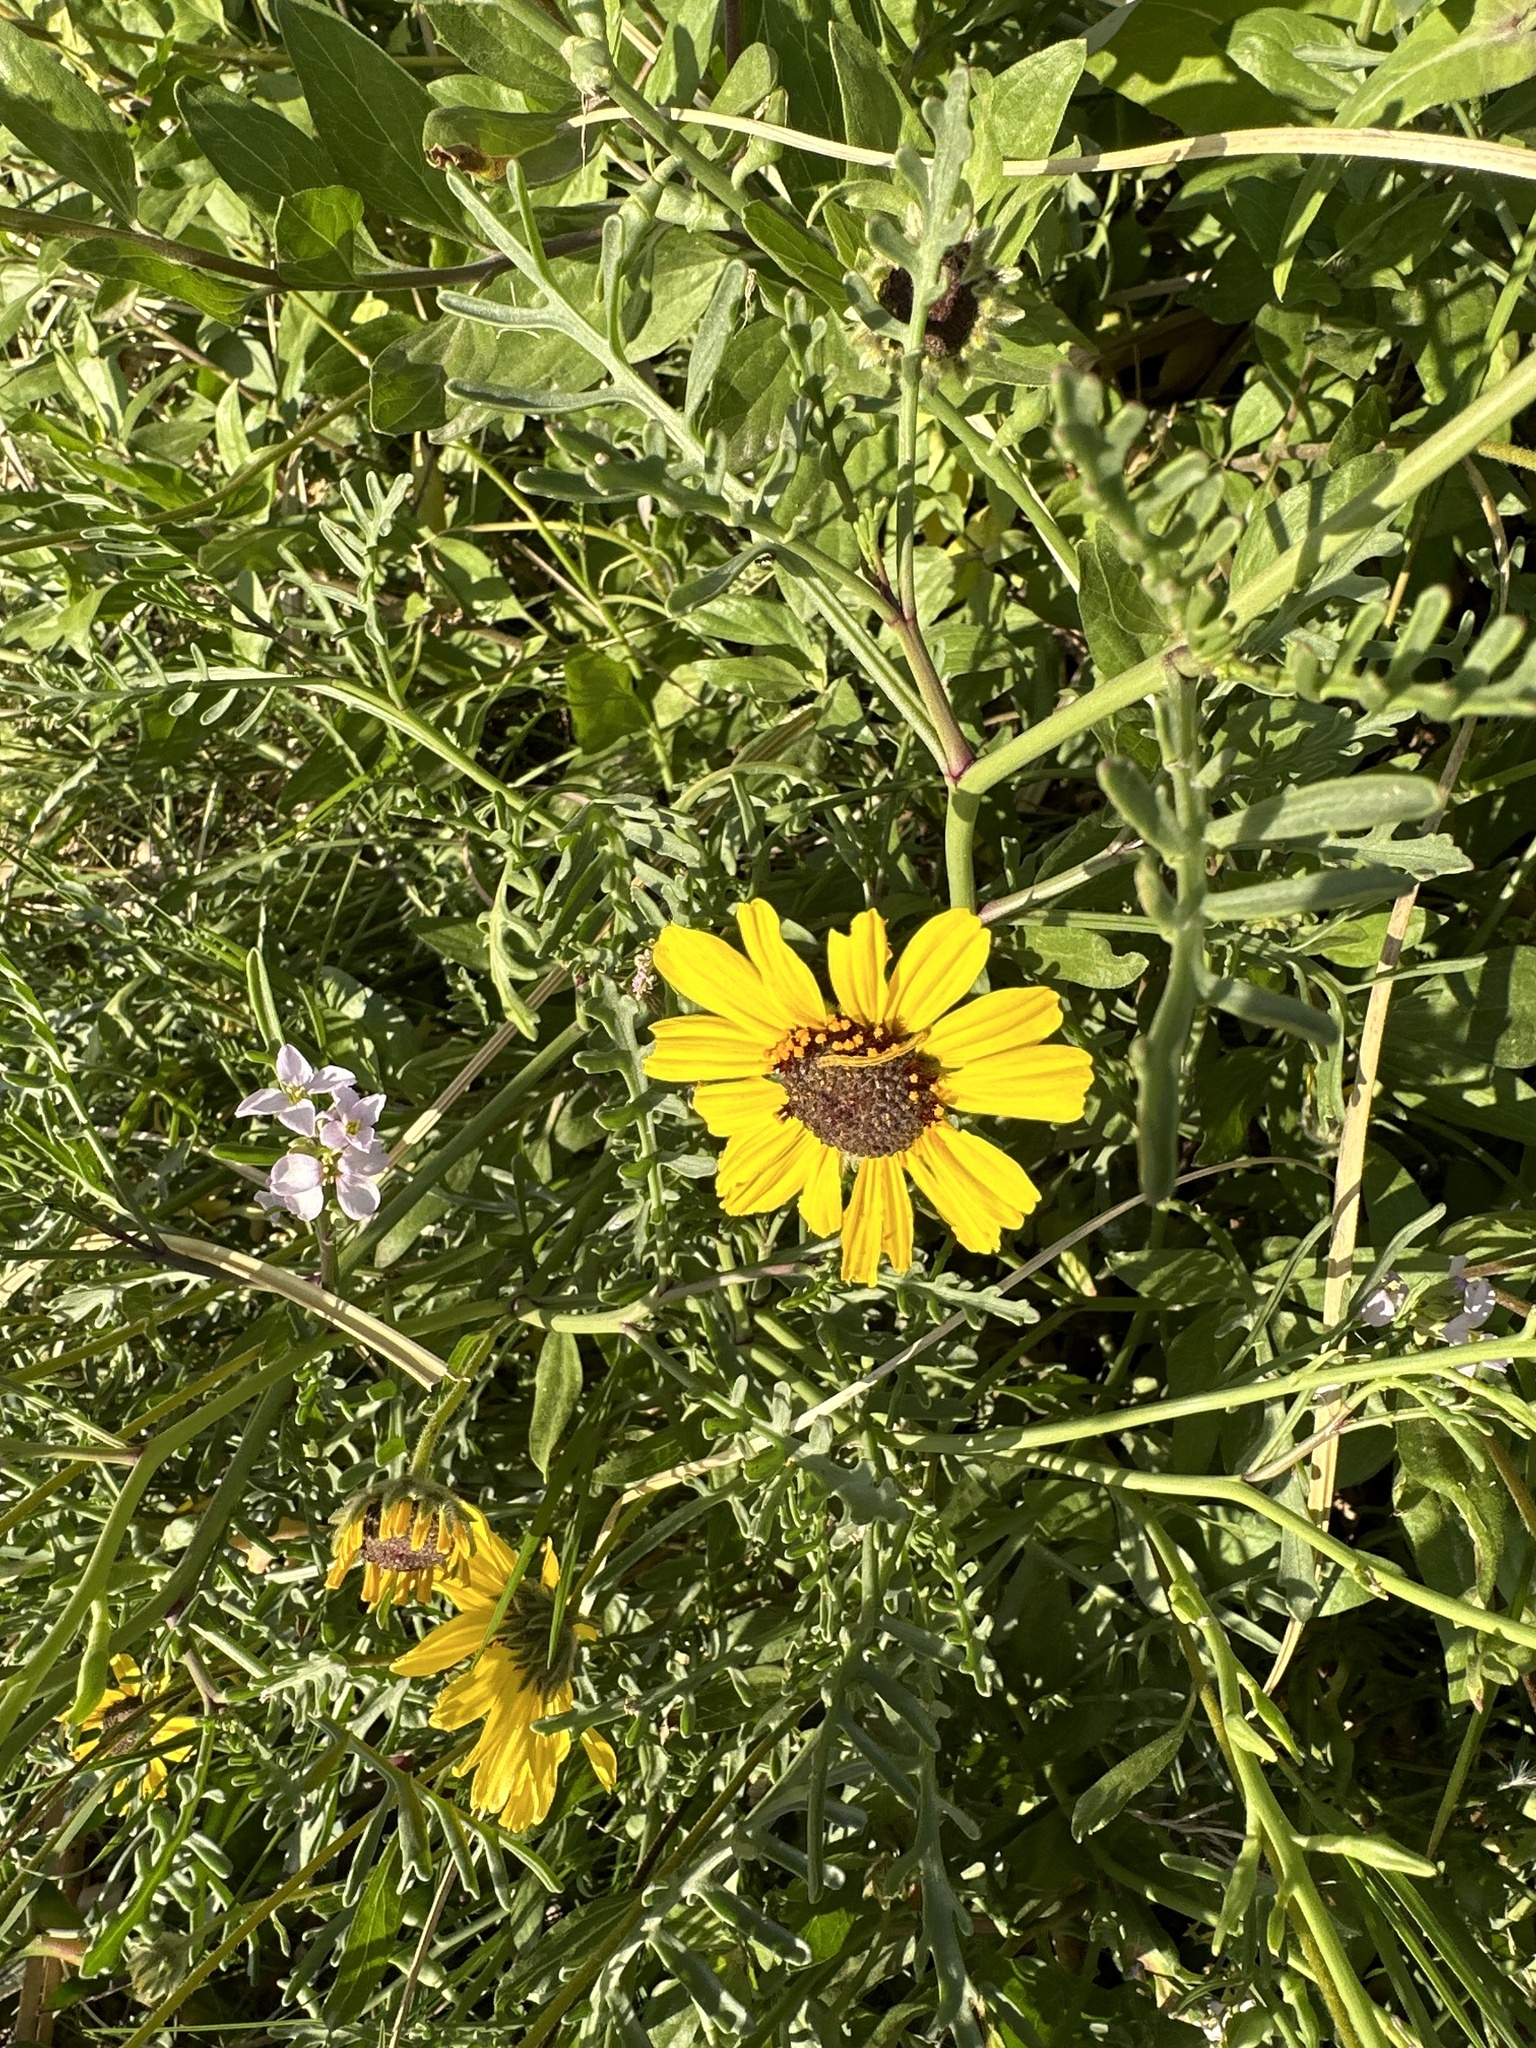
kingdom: Plantae
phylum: Tracheophyta
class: Magnoliopsida
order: Asterales
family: Asteraceae
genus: Encelia
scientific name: Encelia californica
